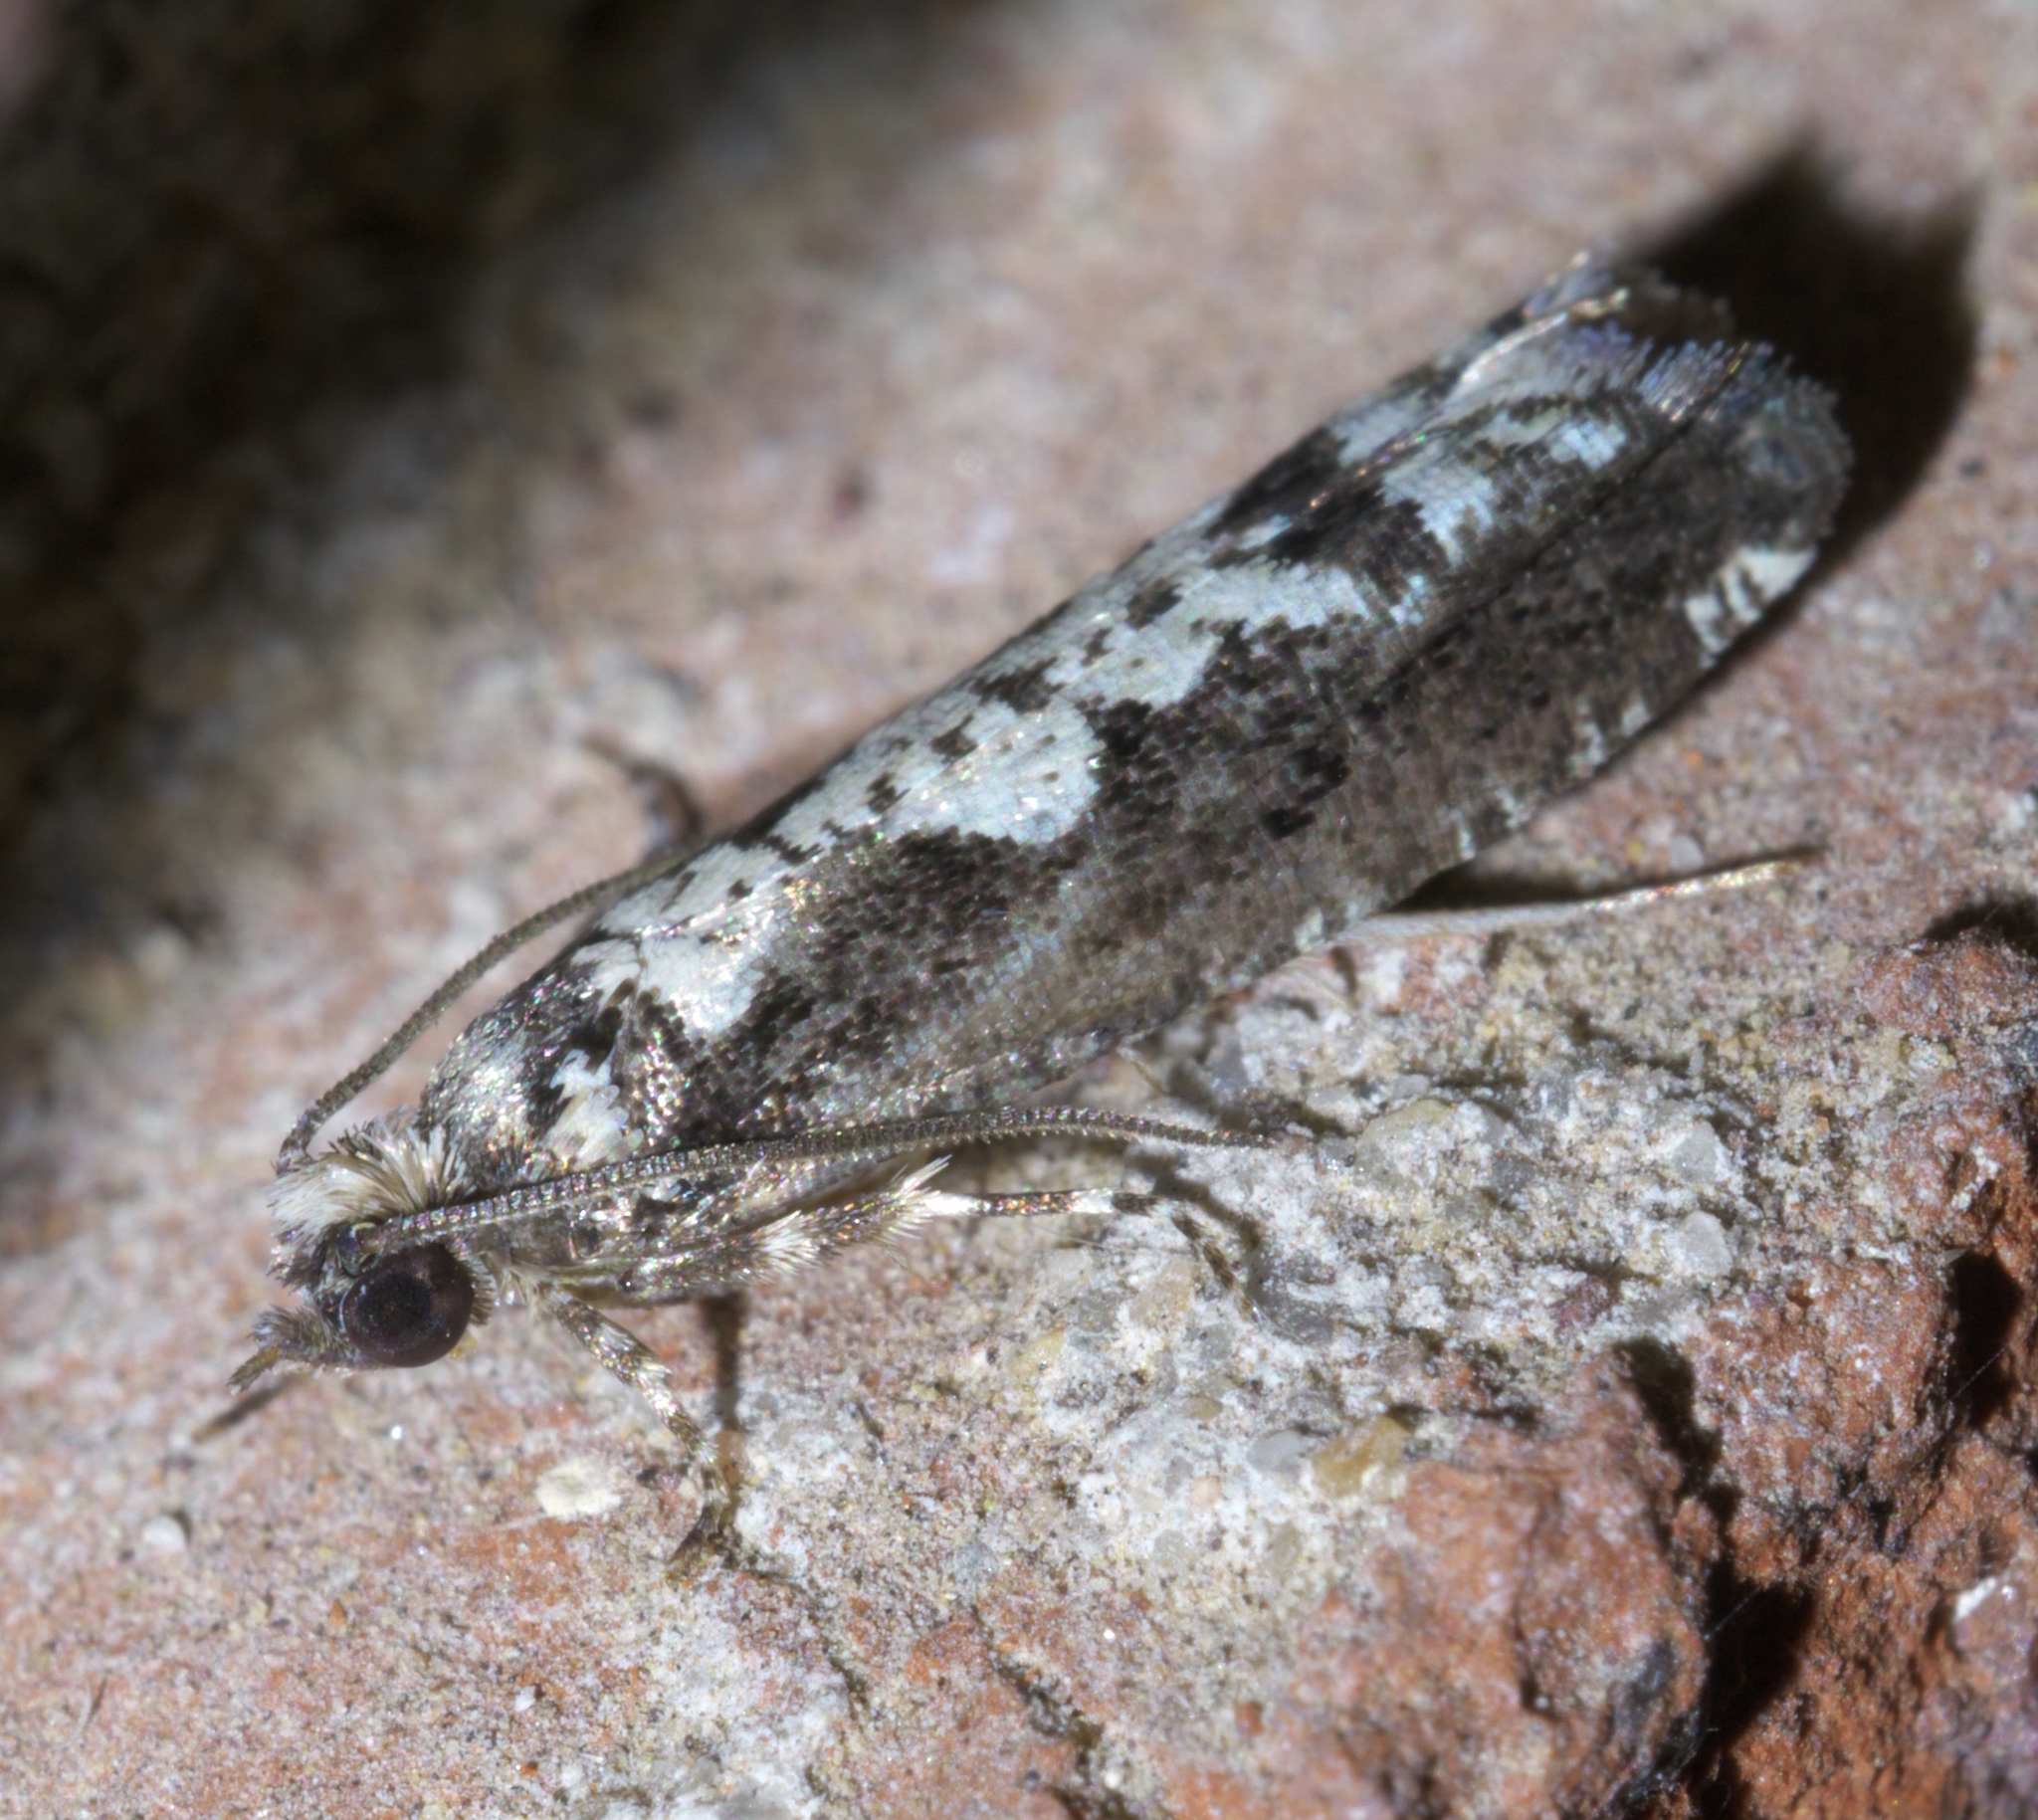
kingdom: Animalia
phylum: Arthropoda
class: Insecta
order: Lepidoptera
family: Tortricidae
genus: Chimoptesis
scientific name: Chimoptesis pennsylvaniana
